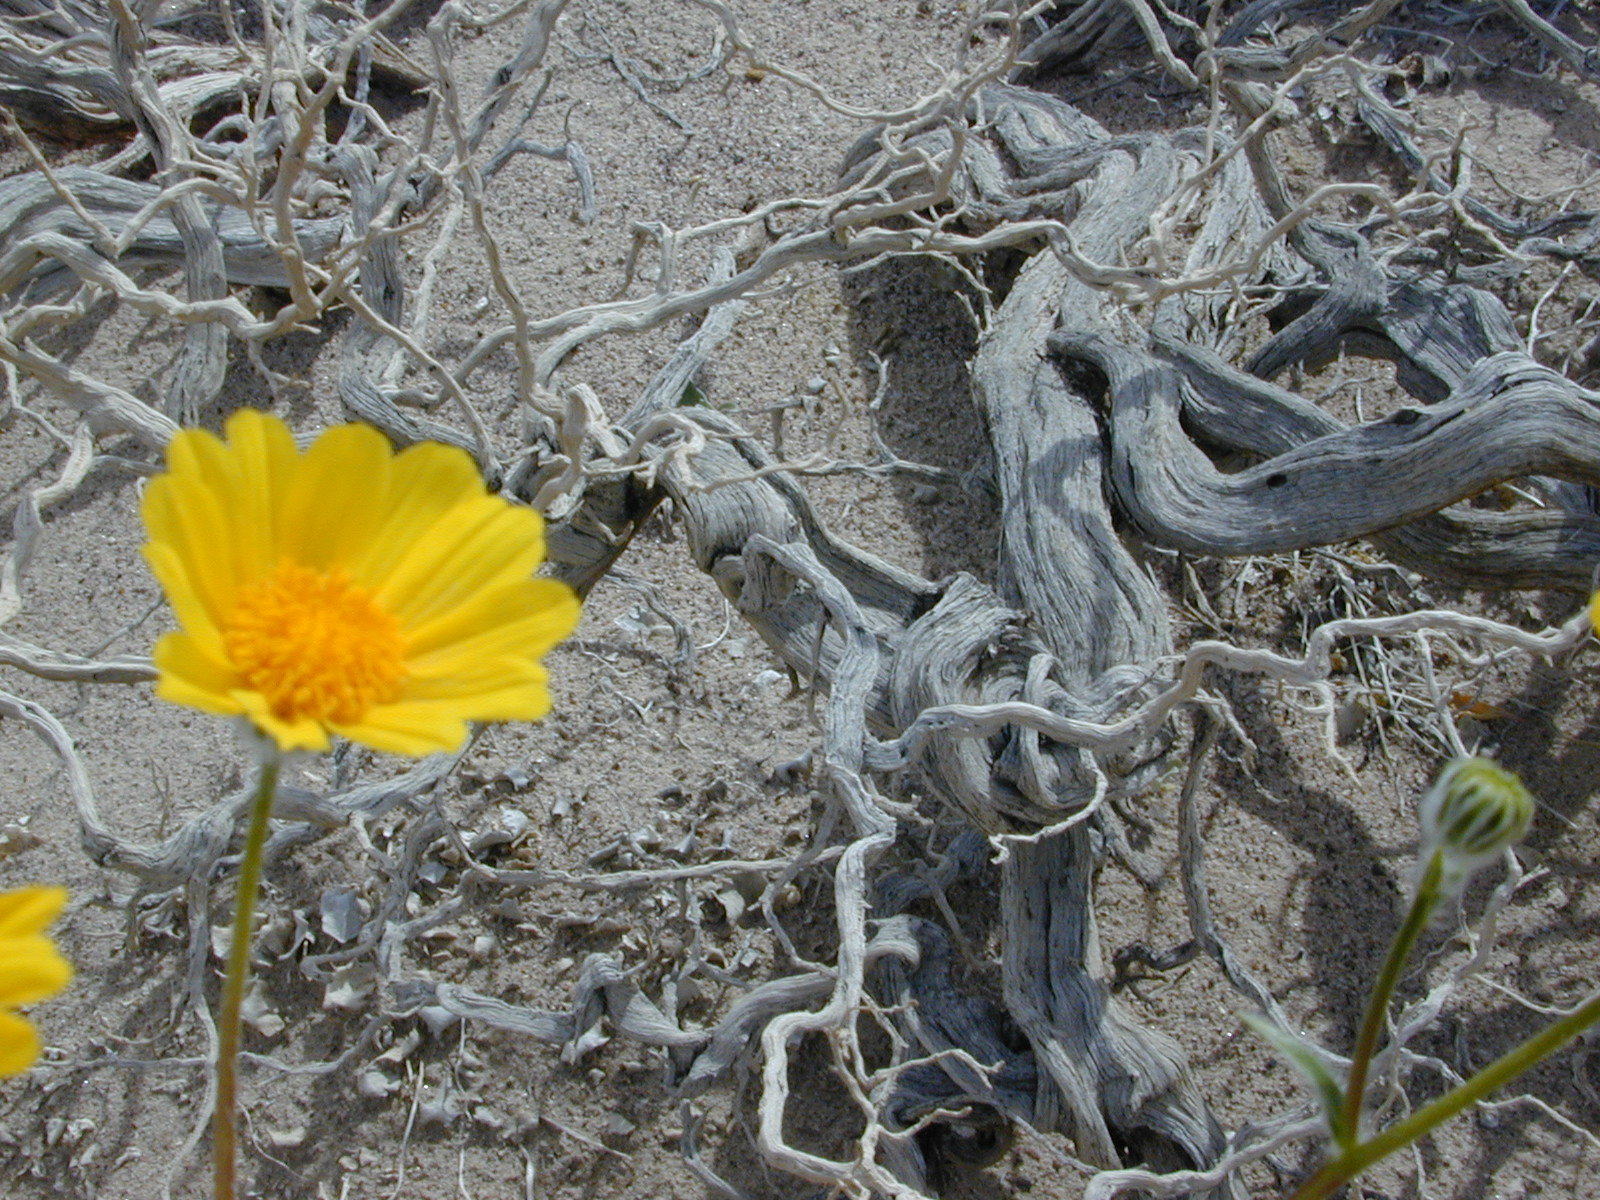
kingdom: Plantae
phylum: Tracheophyta
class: Magnoliopsida
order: Asterales
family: Asteraceae
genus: Geraea
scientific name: Geraea canescens
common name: Desert-gold
